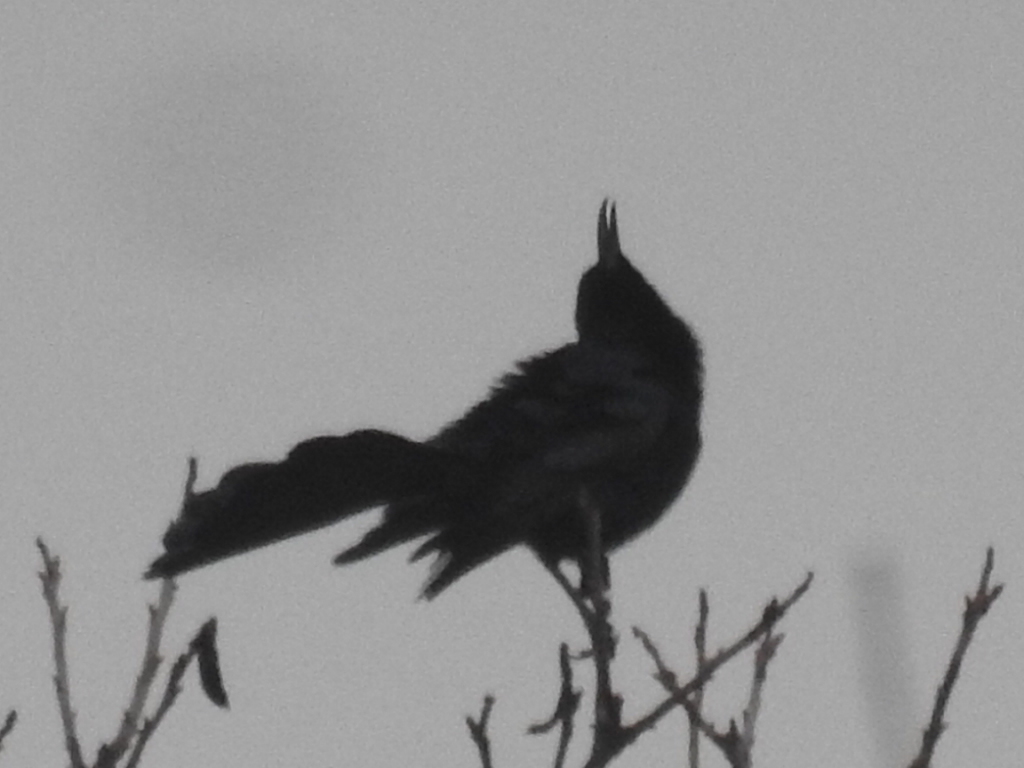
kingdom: Animalia
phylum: Chordata
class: Aves
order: Passeriformes
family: Icteridae
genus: Quiscalus
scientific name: Quiscalus mexicanus
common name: Great-tailed grackle
